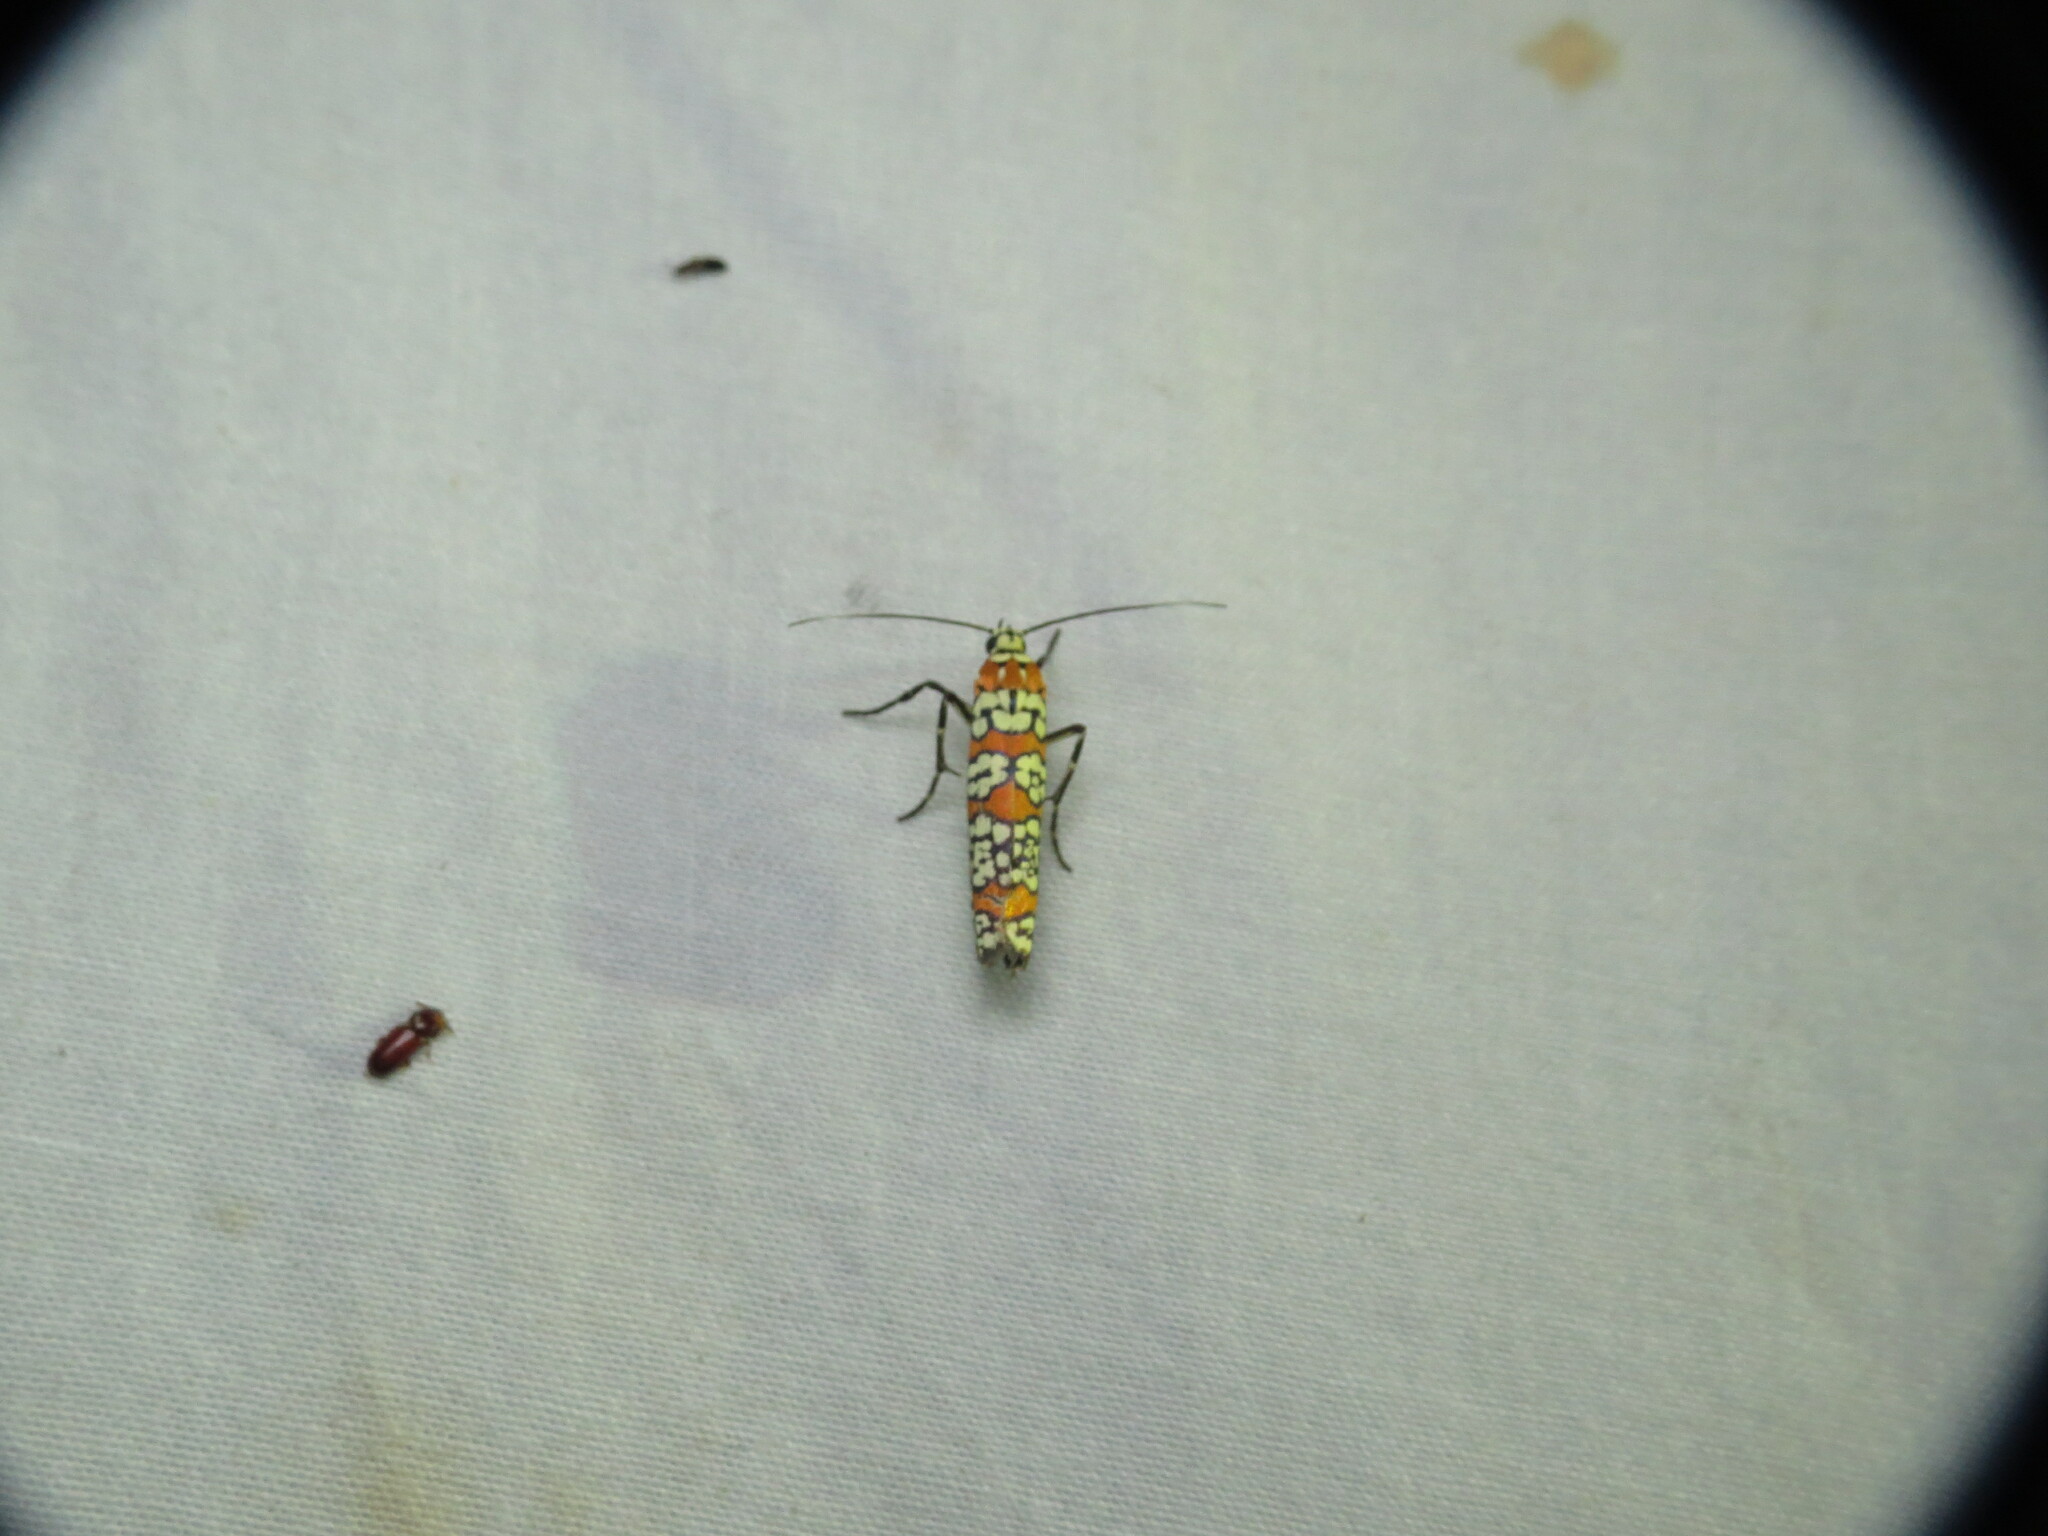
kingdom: Animalia
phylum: Arthropoda
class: Insecta
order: Lepidoptera
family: Attevidae
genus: Atteva
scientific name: Atteva punctella
